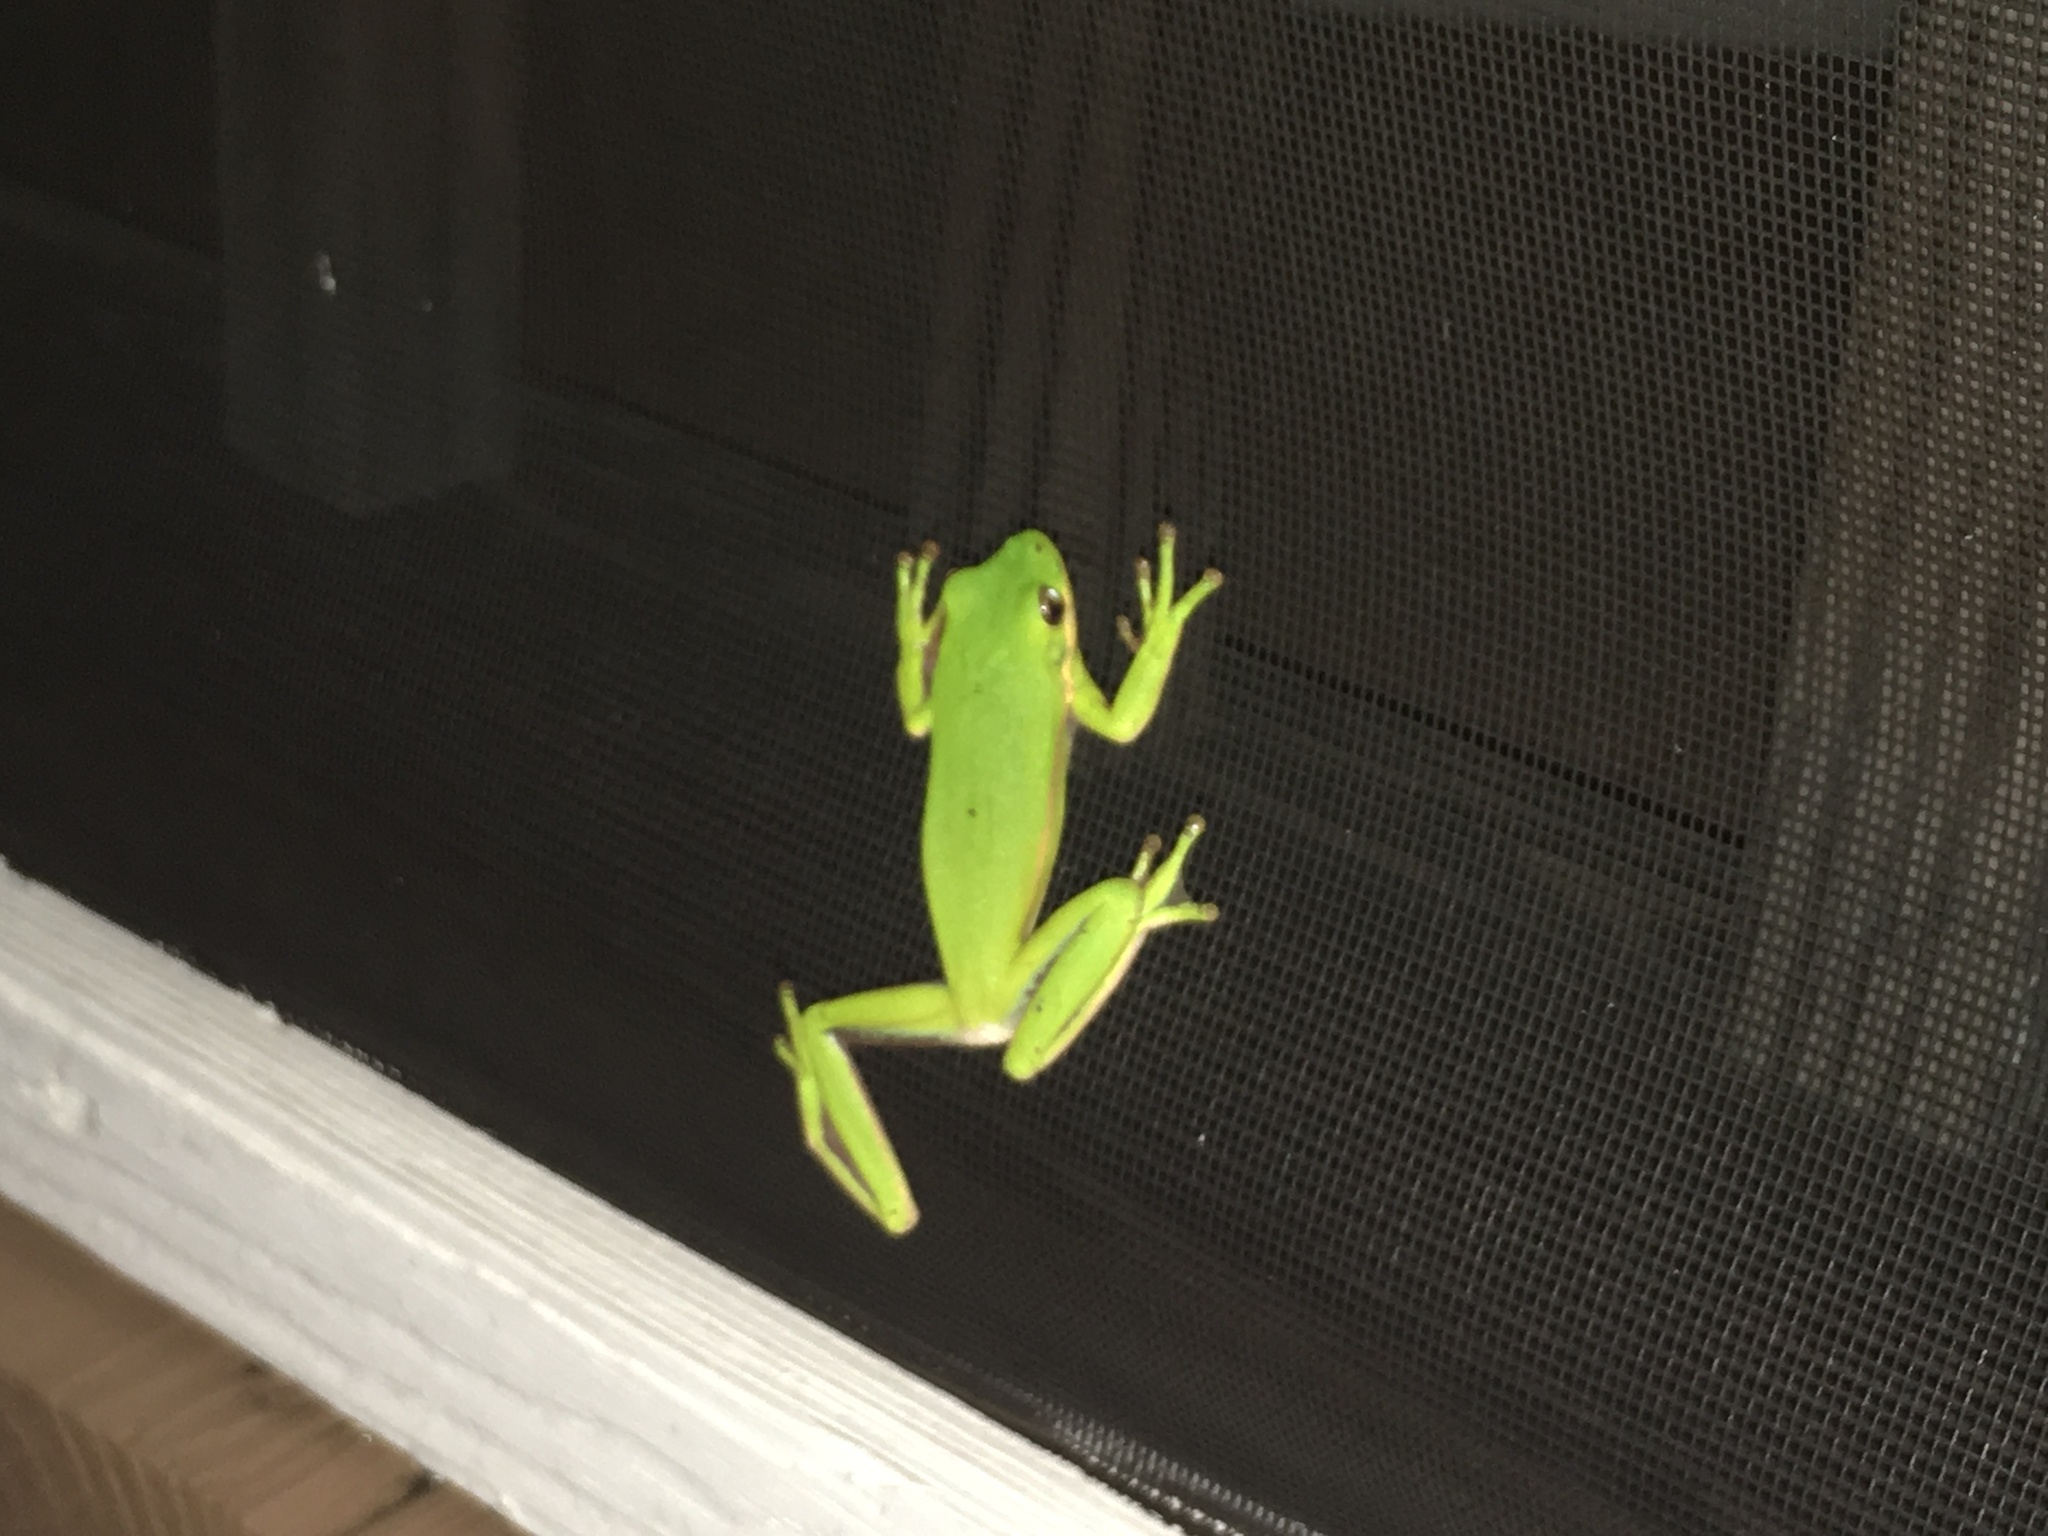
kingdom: Animalia
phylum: Chordata
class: Amphibia
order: Anura
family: Hylidae
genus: Dryophytes
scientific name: Dryophytes squirellus
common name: Squirrel treefrog
